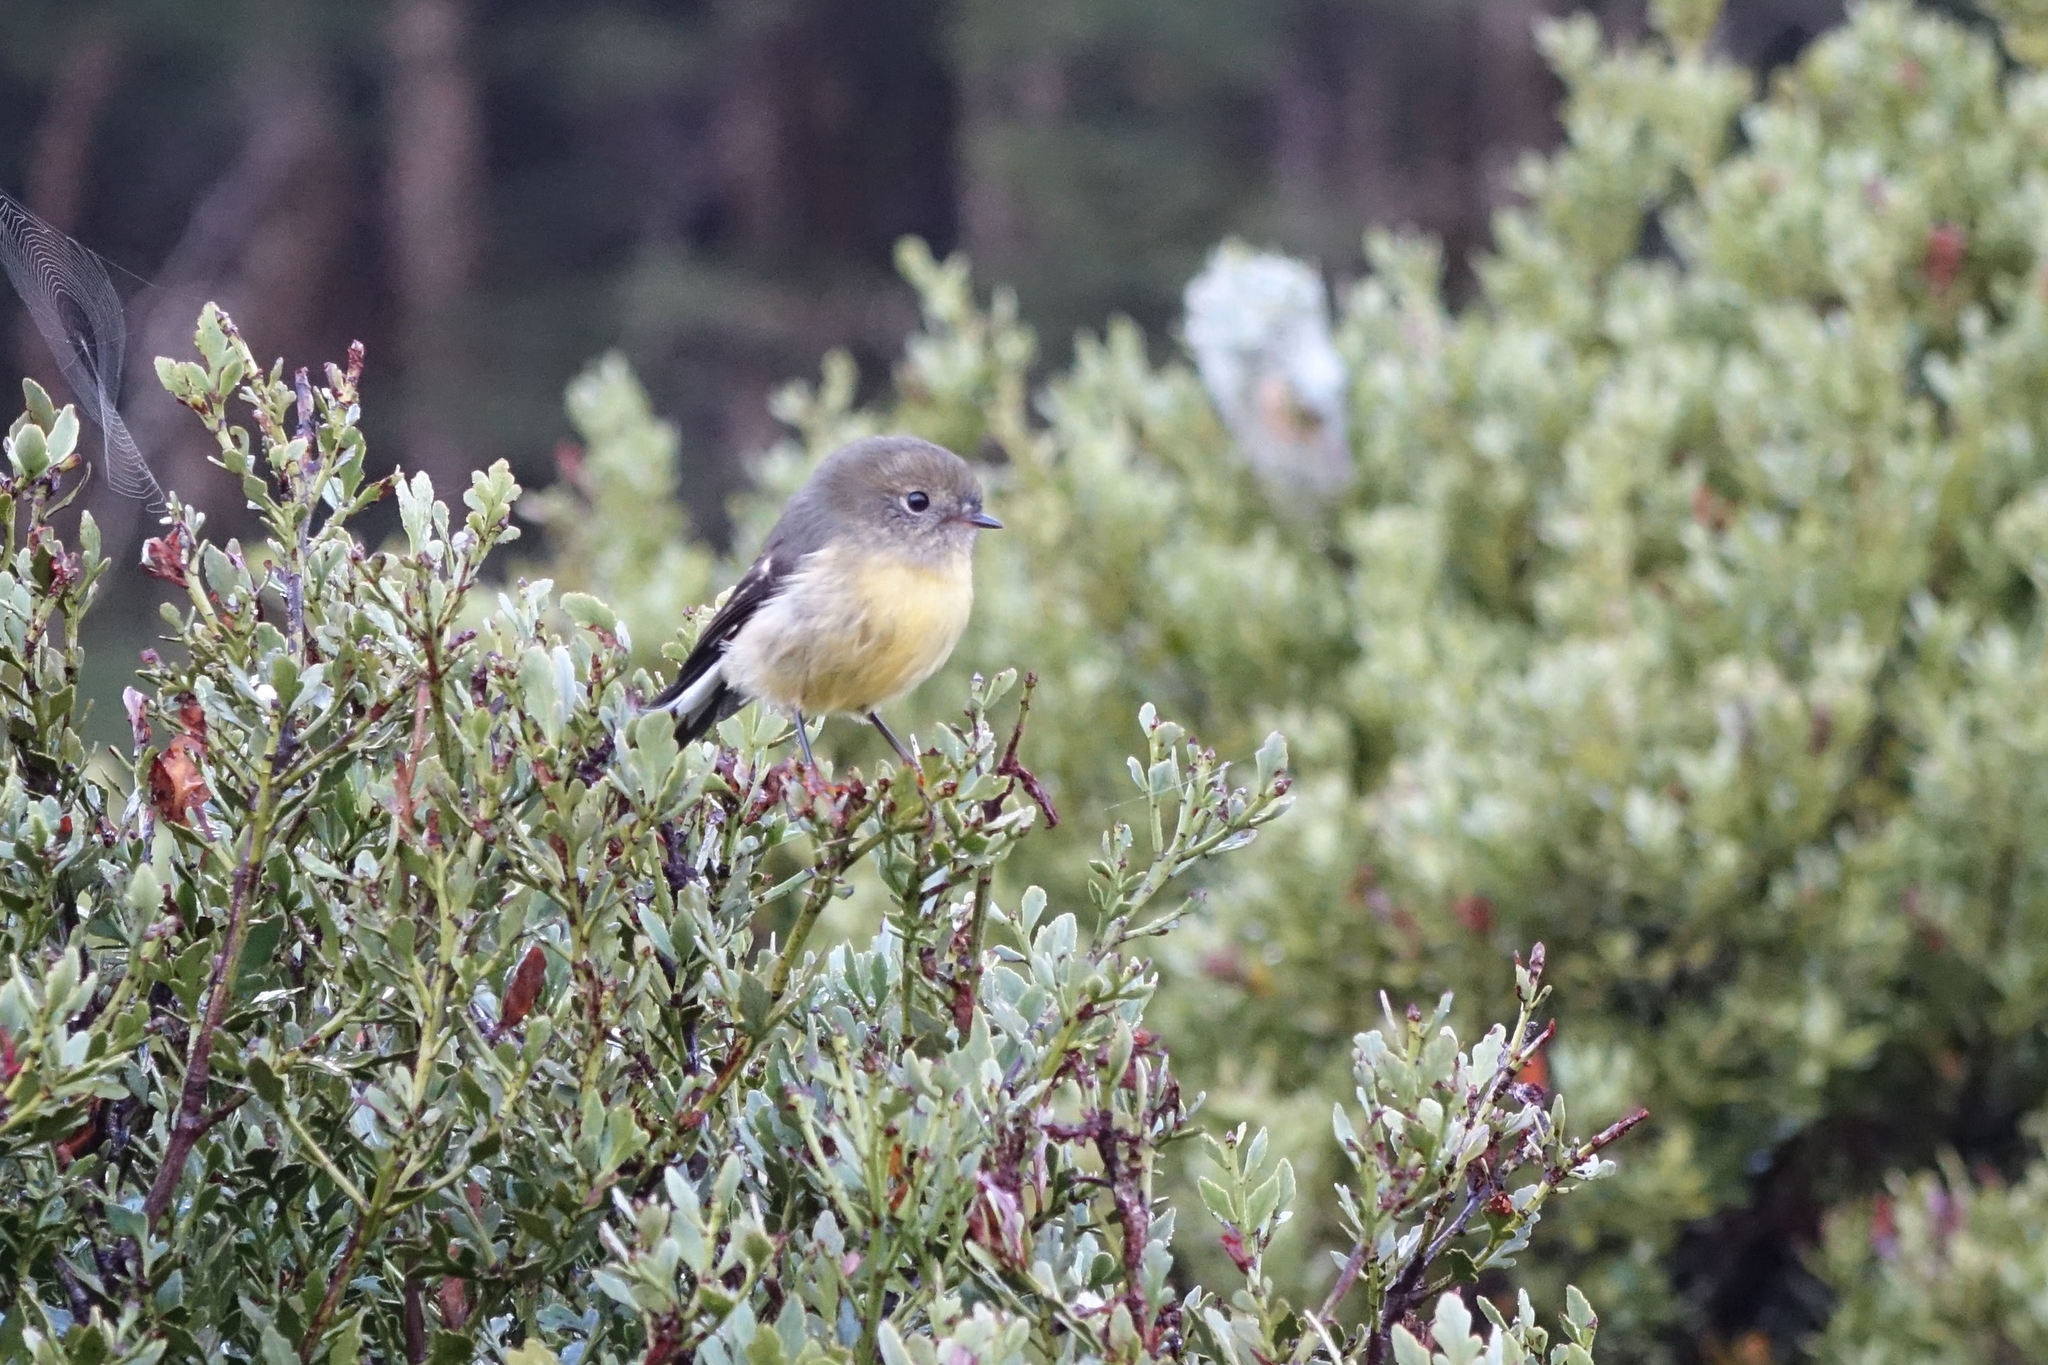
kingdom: Animalia
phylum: Chordata
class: Aves
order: Passeriformes
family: Petroicidae
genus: Petroica
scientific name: Petroica macrocephala
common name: Tomtit
